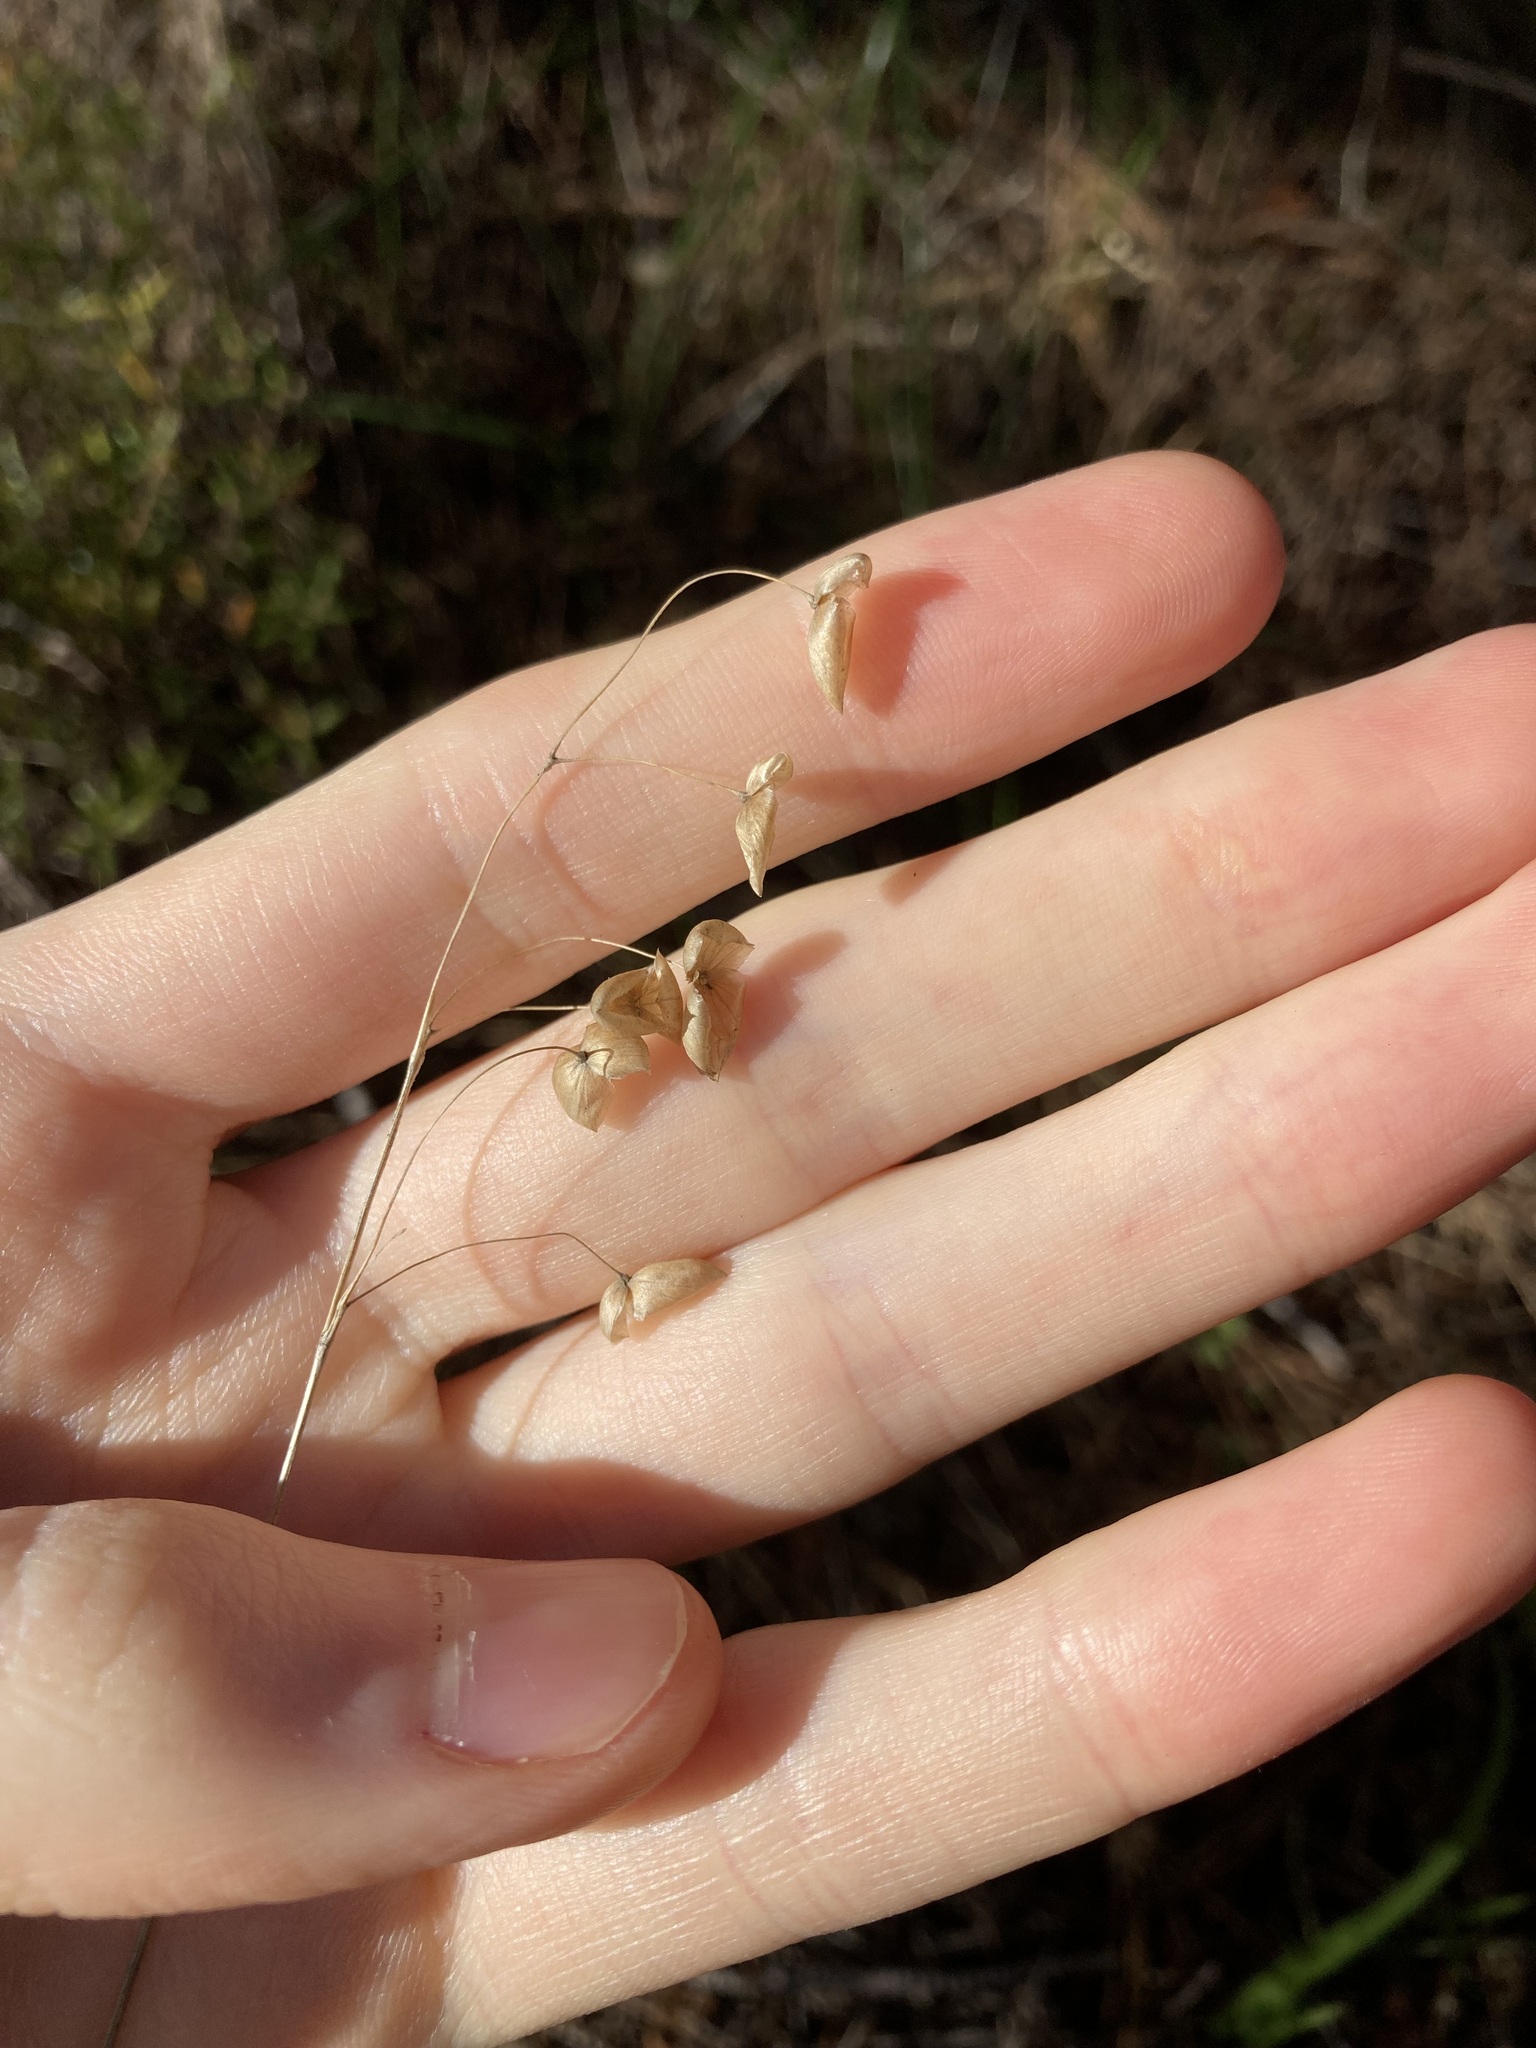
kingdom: Plantae
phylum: Tracheophyta
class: Liliopsida
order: Poales
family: Poaceae
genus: Briza
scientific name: Briza maxima
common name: Big quakinggrass
